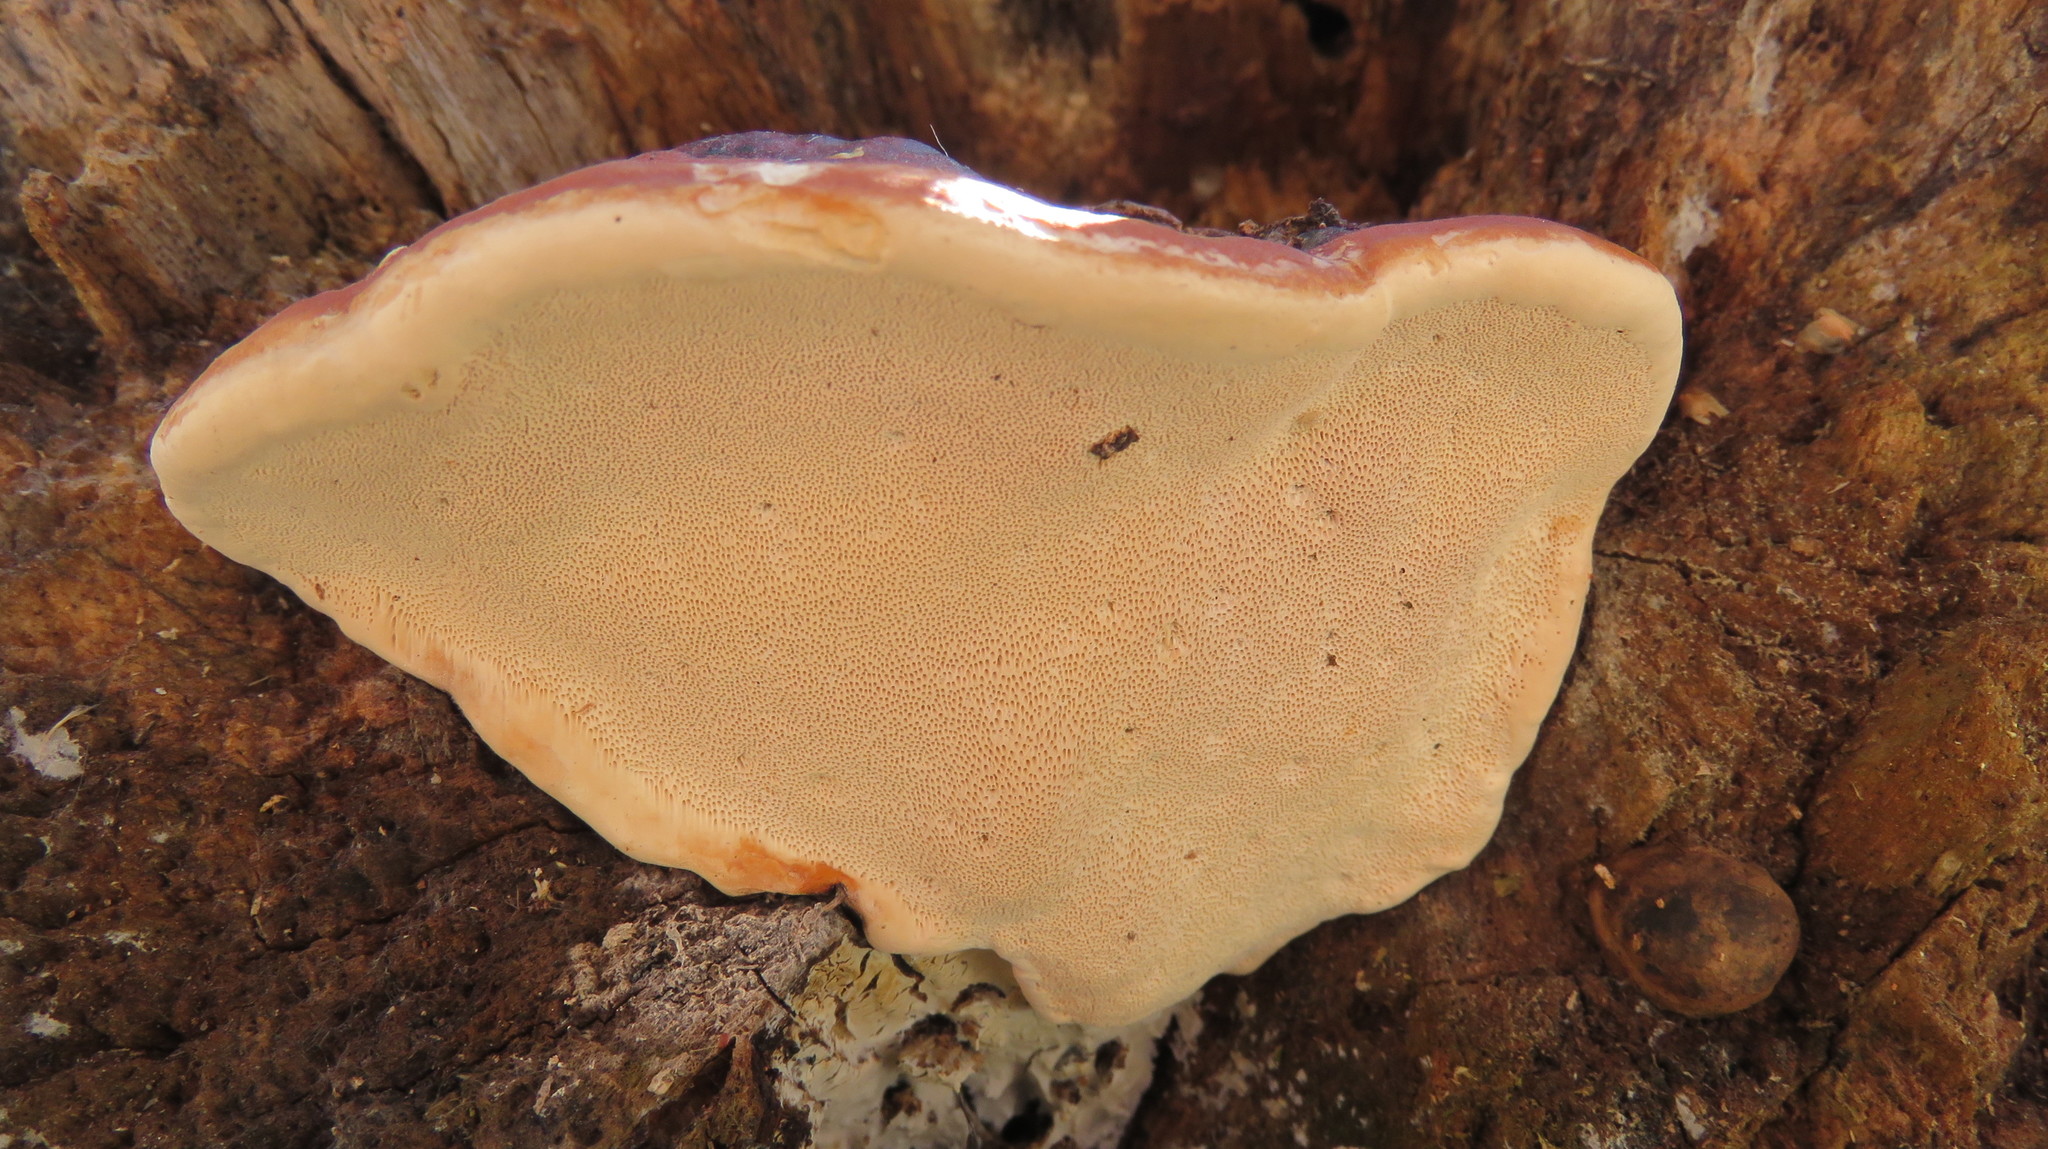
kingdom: Fungi
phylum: Basidiomycota
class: Agaricomycetes
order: Polyporales
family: Fomitopsidaceae
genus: Fomitopsis
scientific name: Fomitopsis mounceae
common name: Northern red belt
